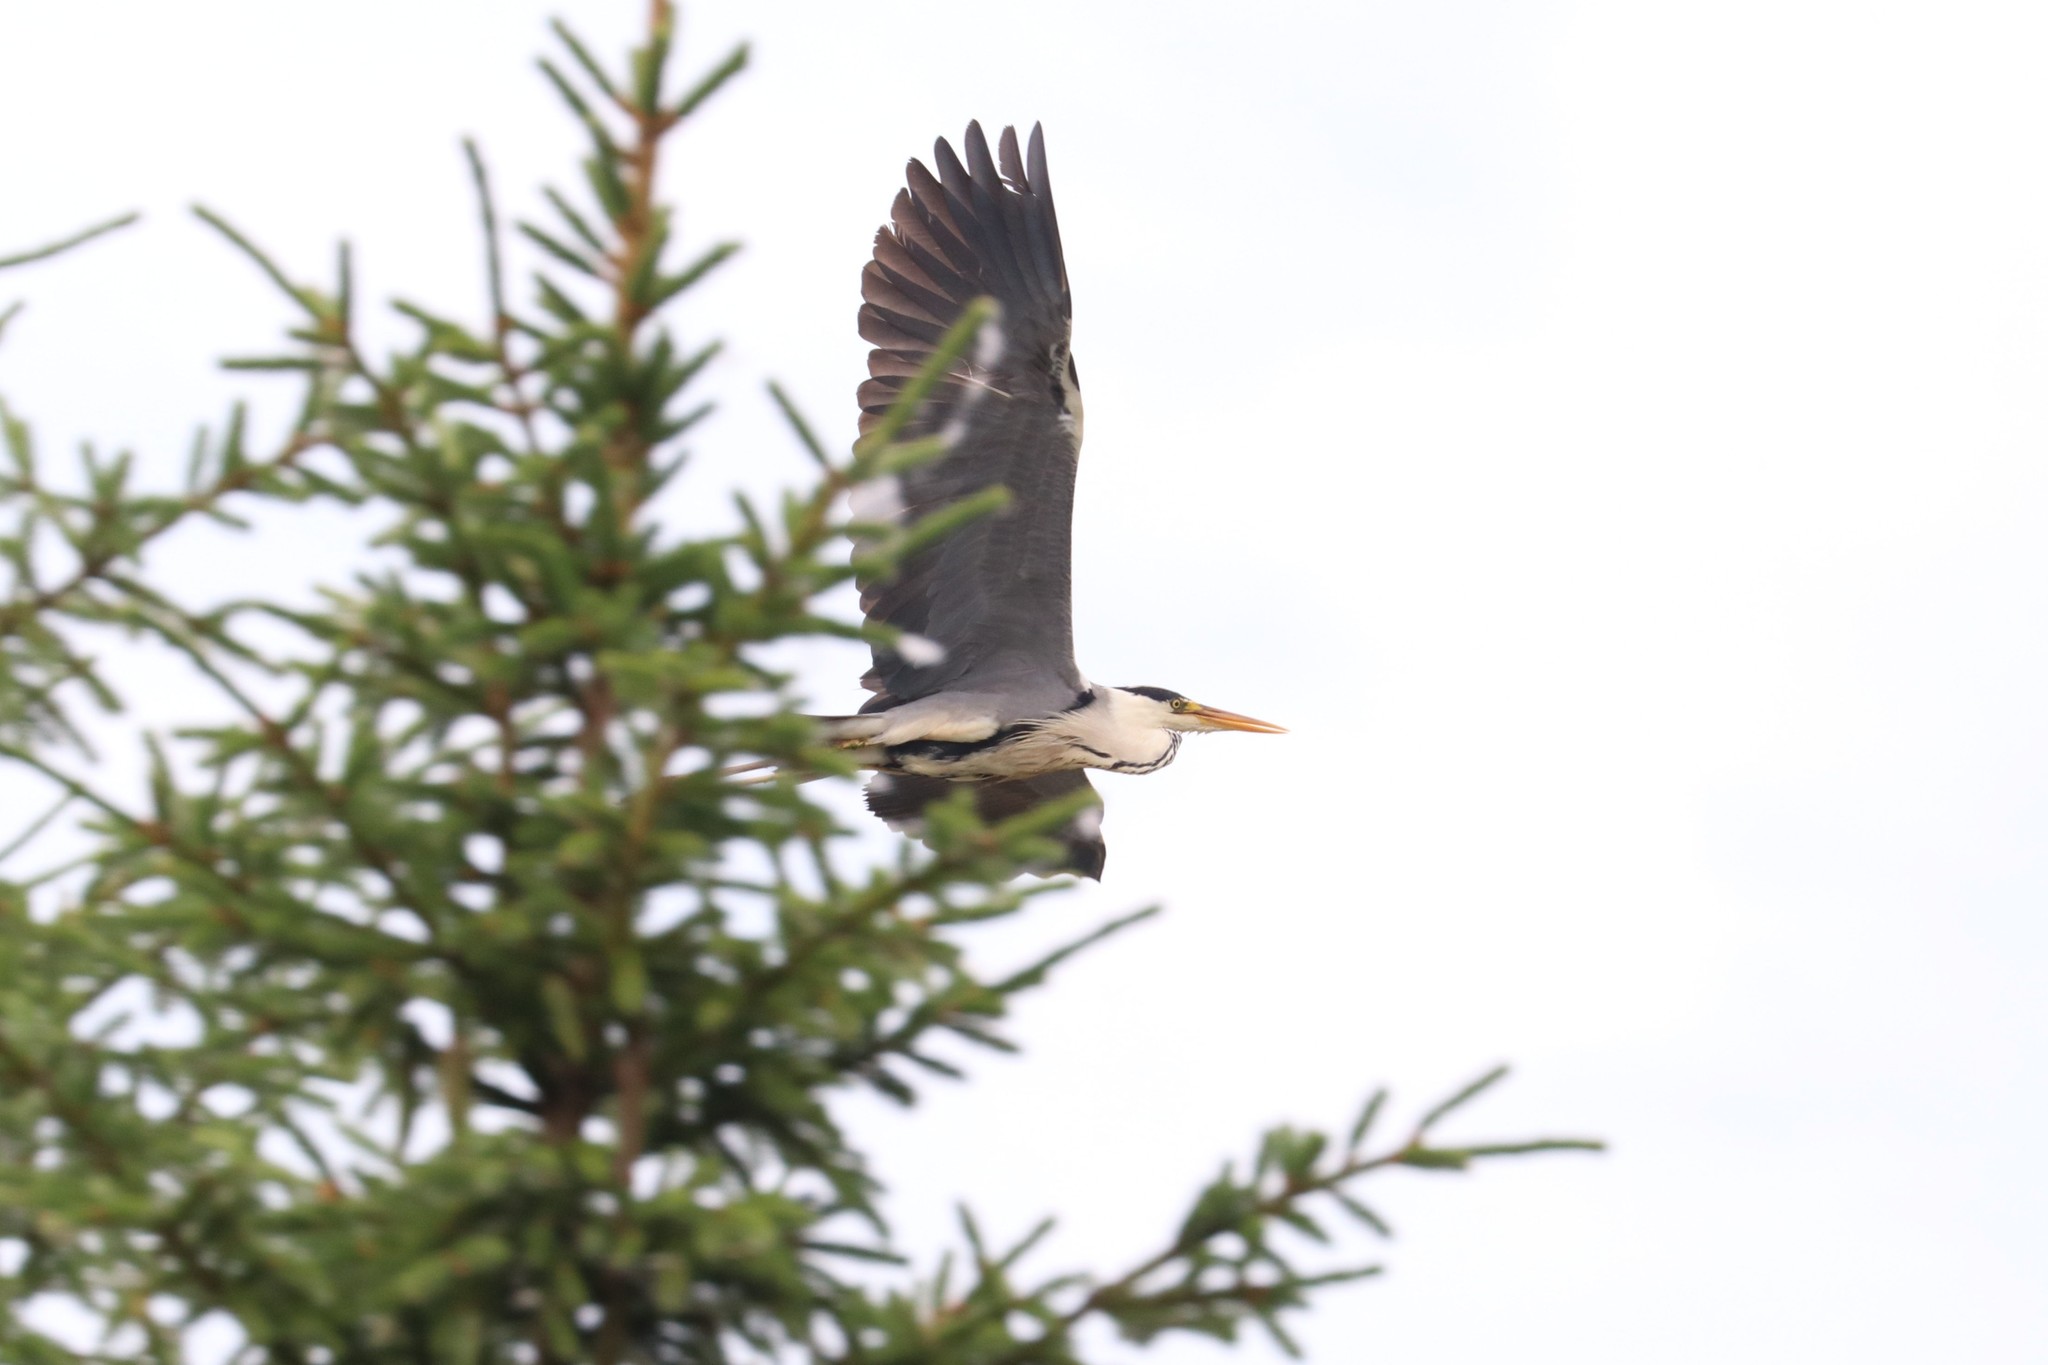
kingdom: Animalia
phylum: Chordata
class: Aves
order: Pelecaniformes
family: Ardeidae
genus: Ardea
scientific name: Ardea cinerea
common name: Grey heron
